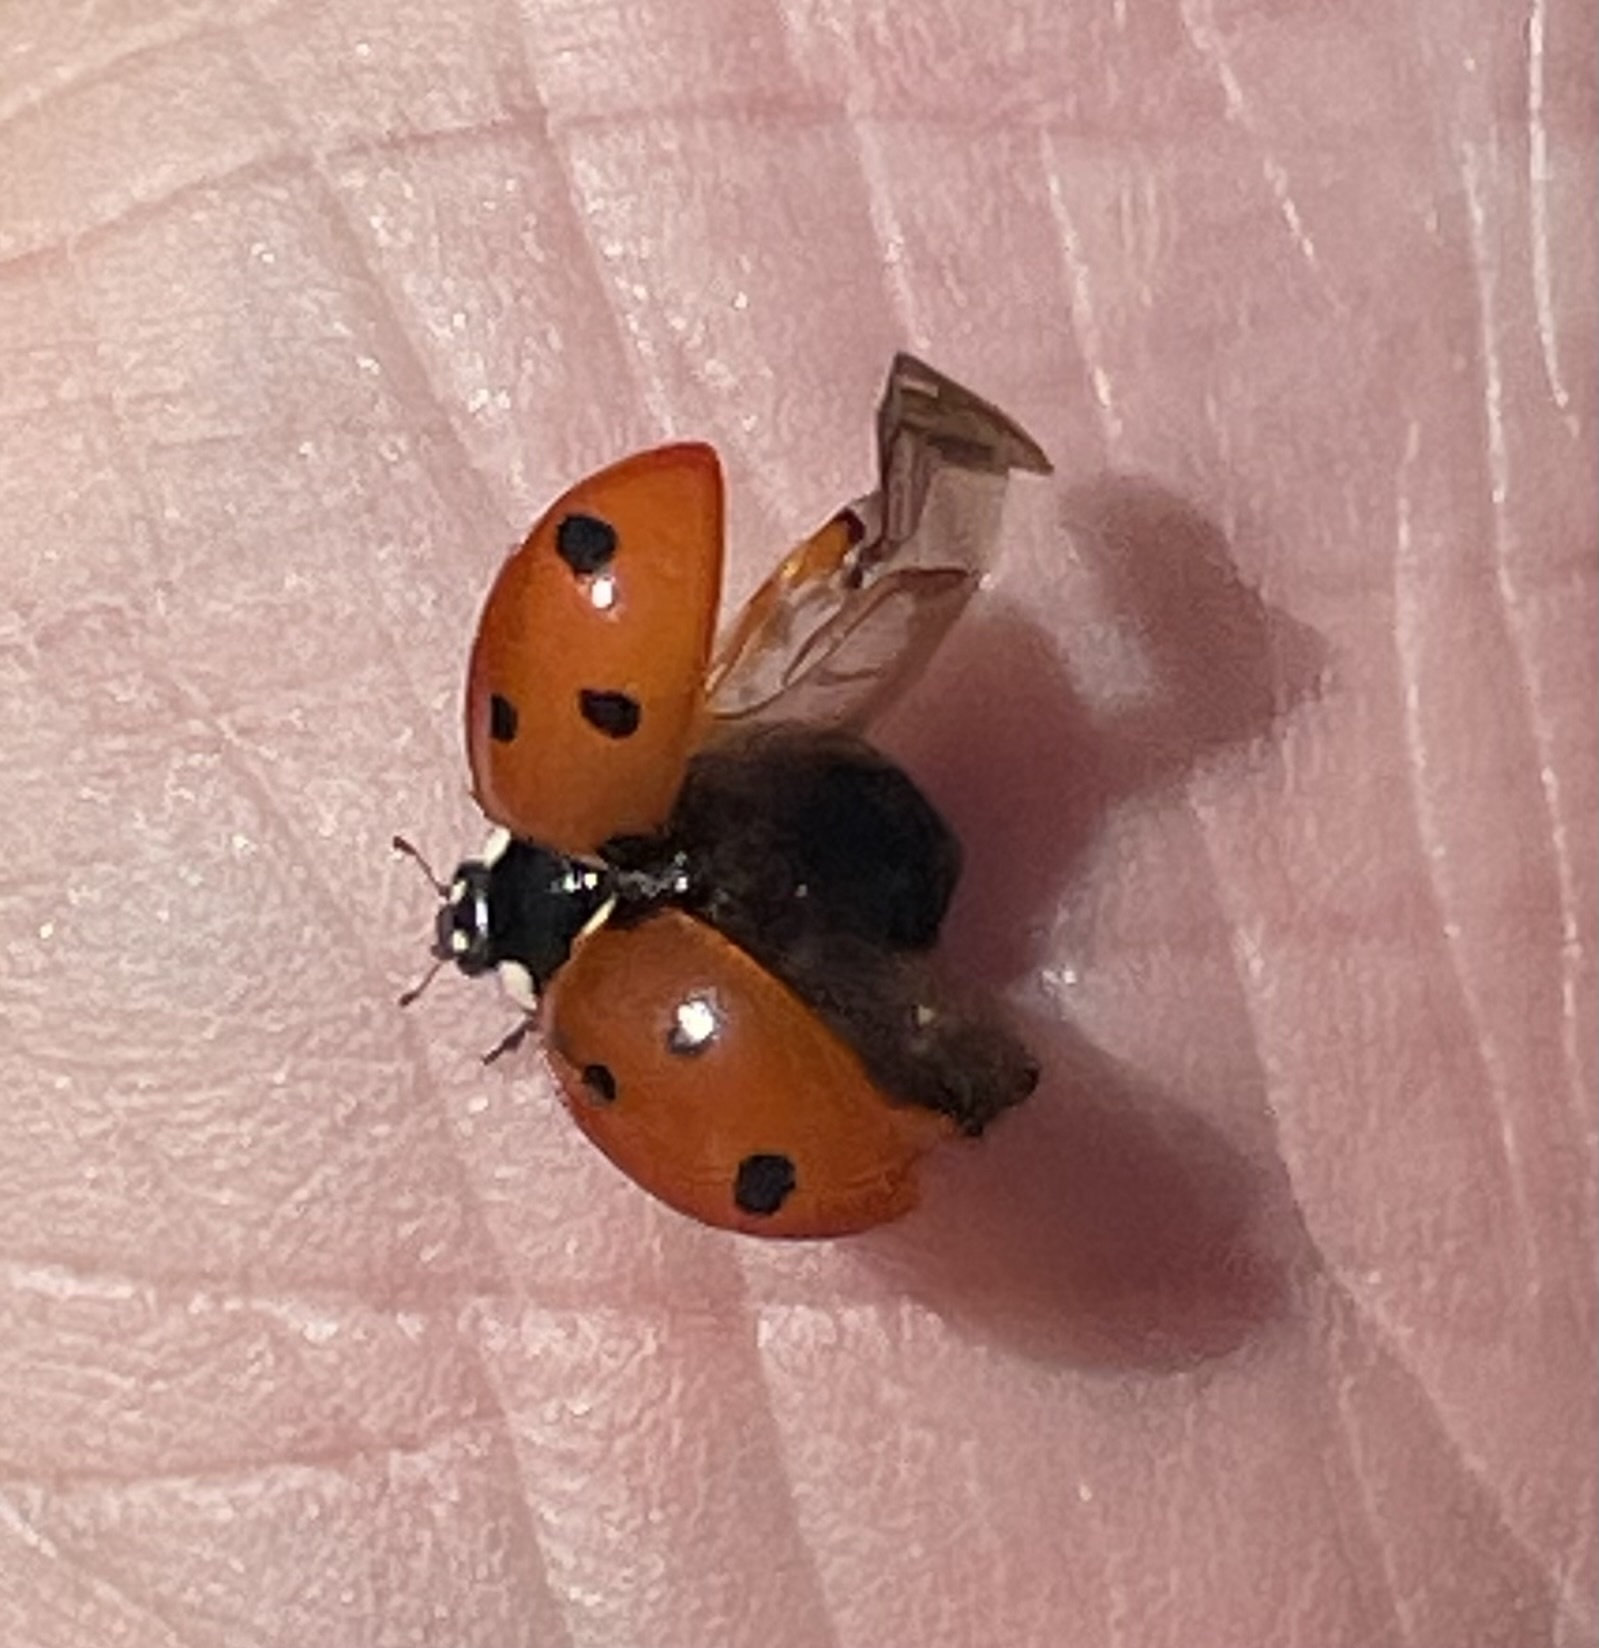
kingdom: Animalia
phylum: Arthropoda
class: Insecta
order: Coleoptera
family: Coccinellidae
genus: Coccinella
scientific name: Coccinella septempunctata
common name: Sevenspotted lady beetle
